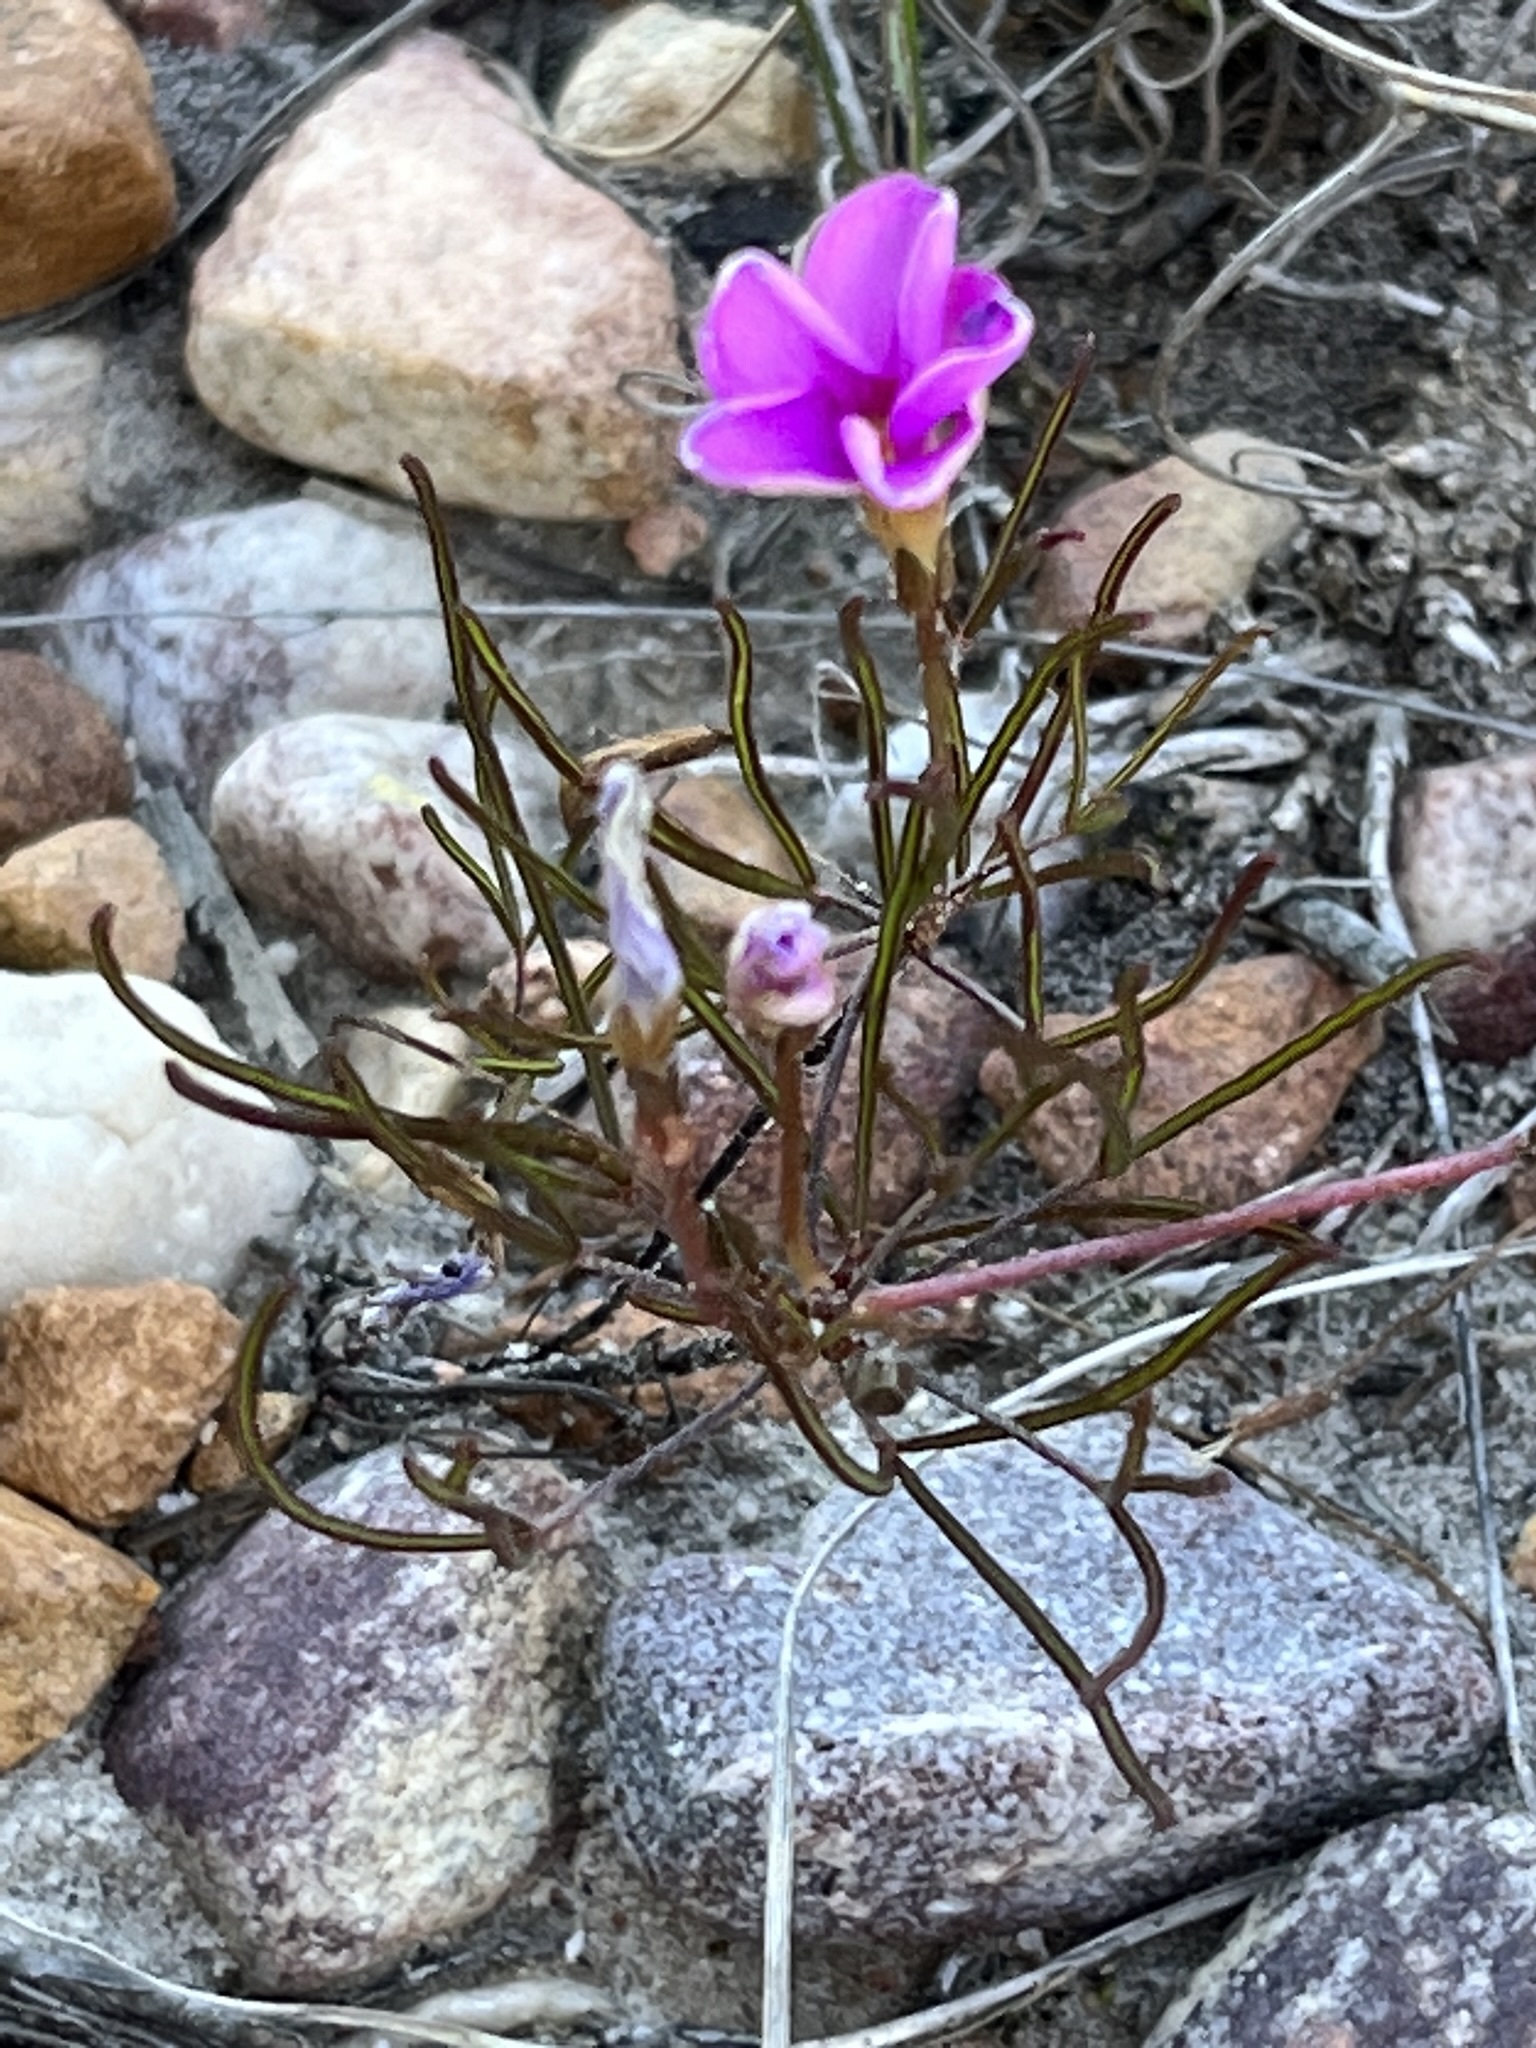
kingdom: Plantae
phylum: Tracheophyta
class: Magnoliopsida
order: Oxalidales
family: Oxalidaceae
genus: Oxalis
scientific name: Oxalis polyphylla
